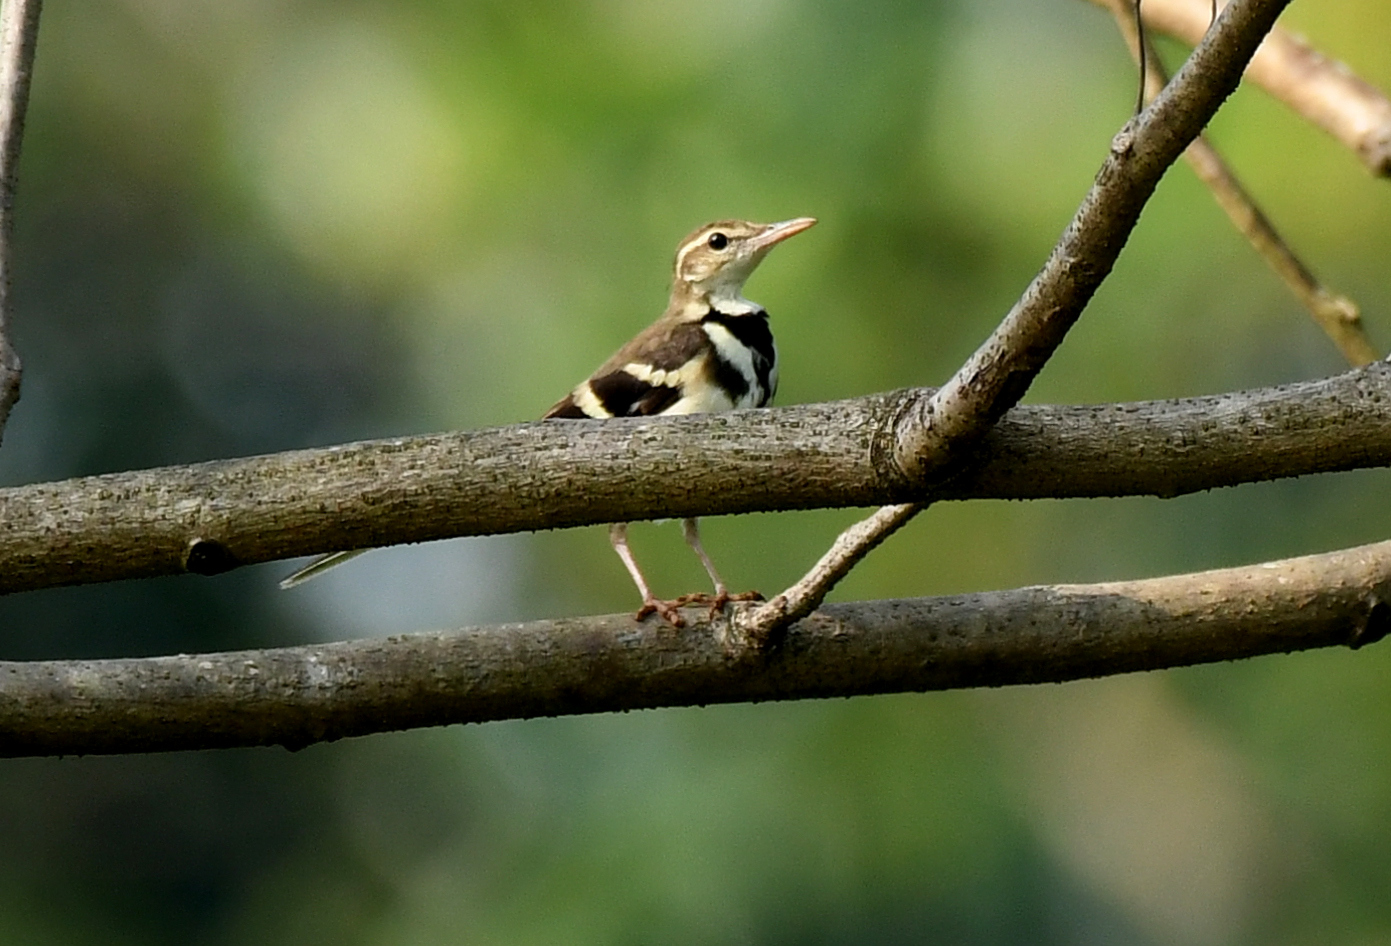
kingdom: Animalia
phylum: Chordata
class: Aves
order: Passeriformes
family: Motacillidae
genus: Dendronanthus
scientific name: Dendronanthus indicus
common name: Forest wagtail
